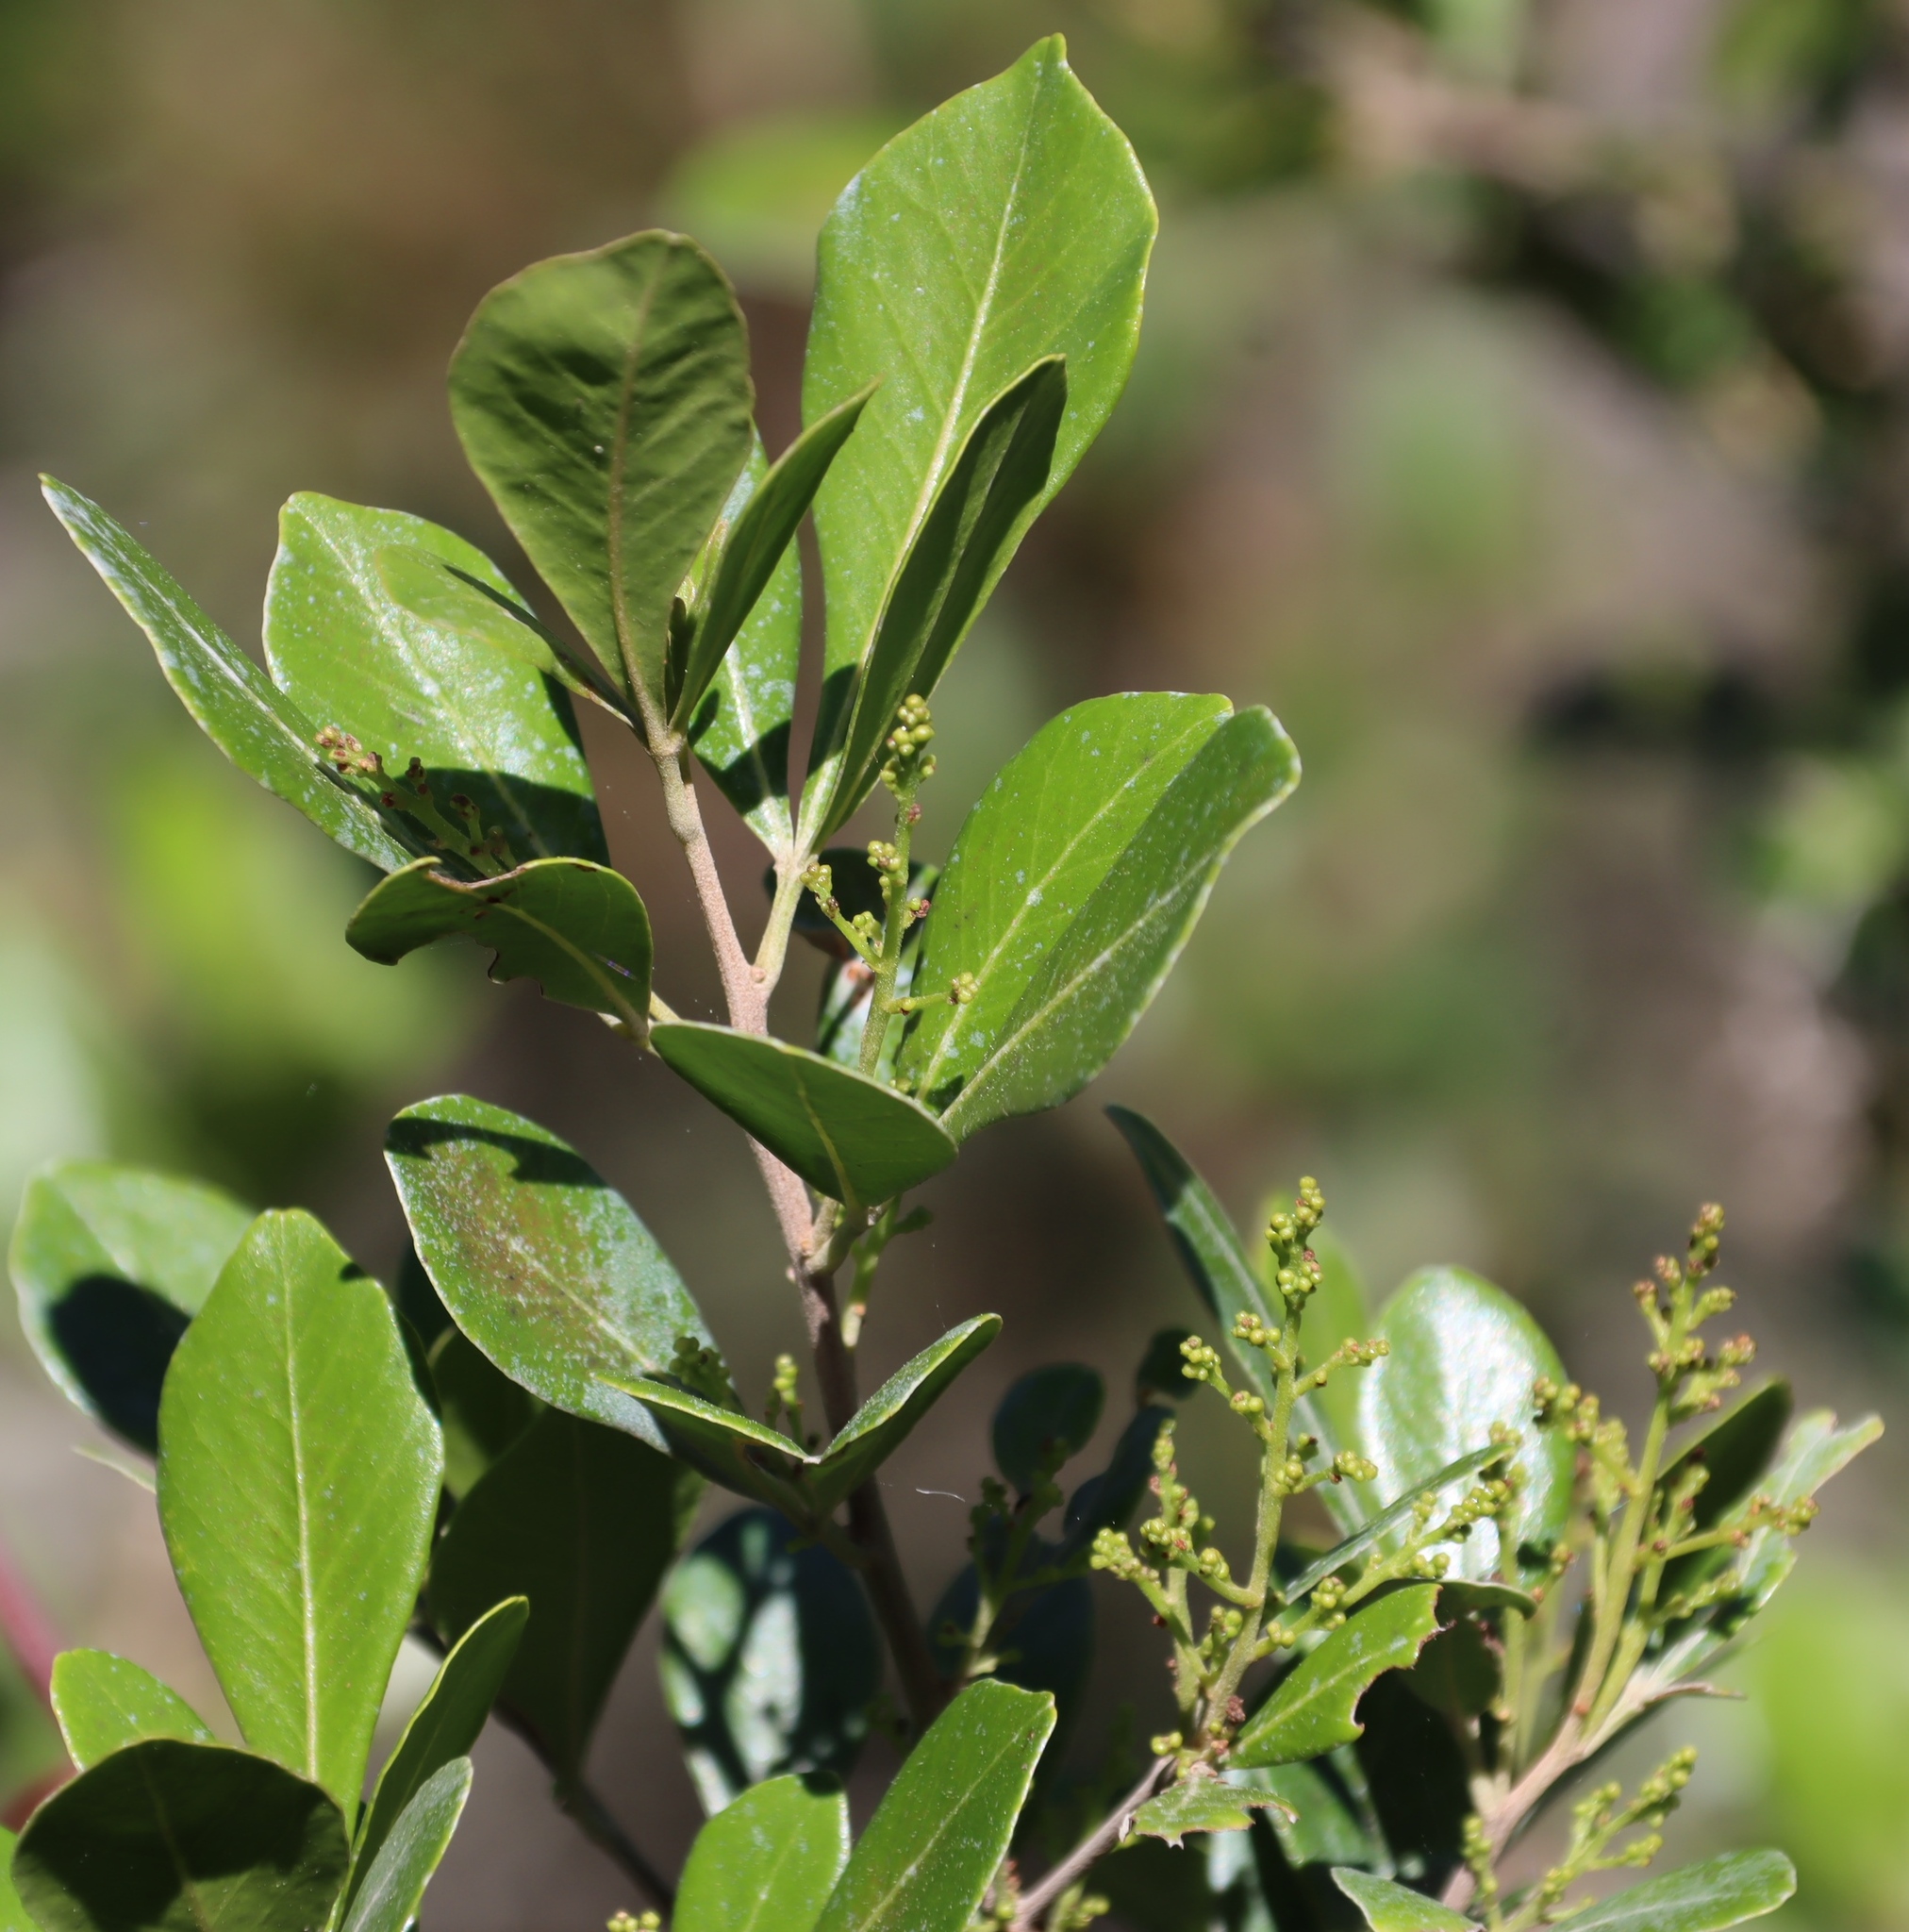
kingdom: Plantae
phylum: Tracheophyta
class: Magnoliopsida
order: Sapindales
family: Anacardiaceae
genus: Searsia
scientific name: Searsia lucida
